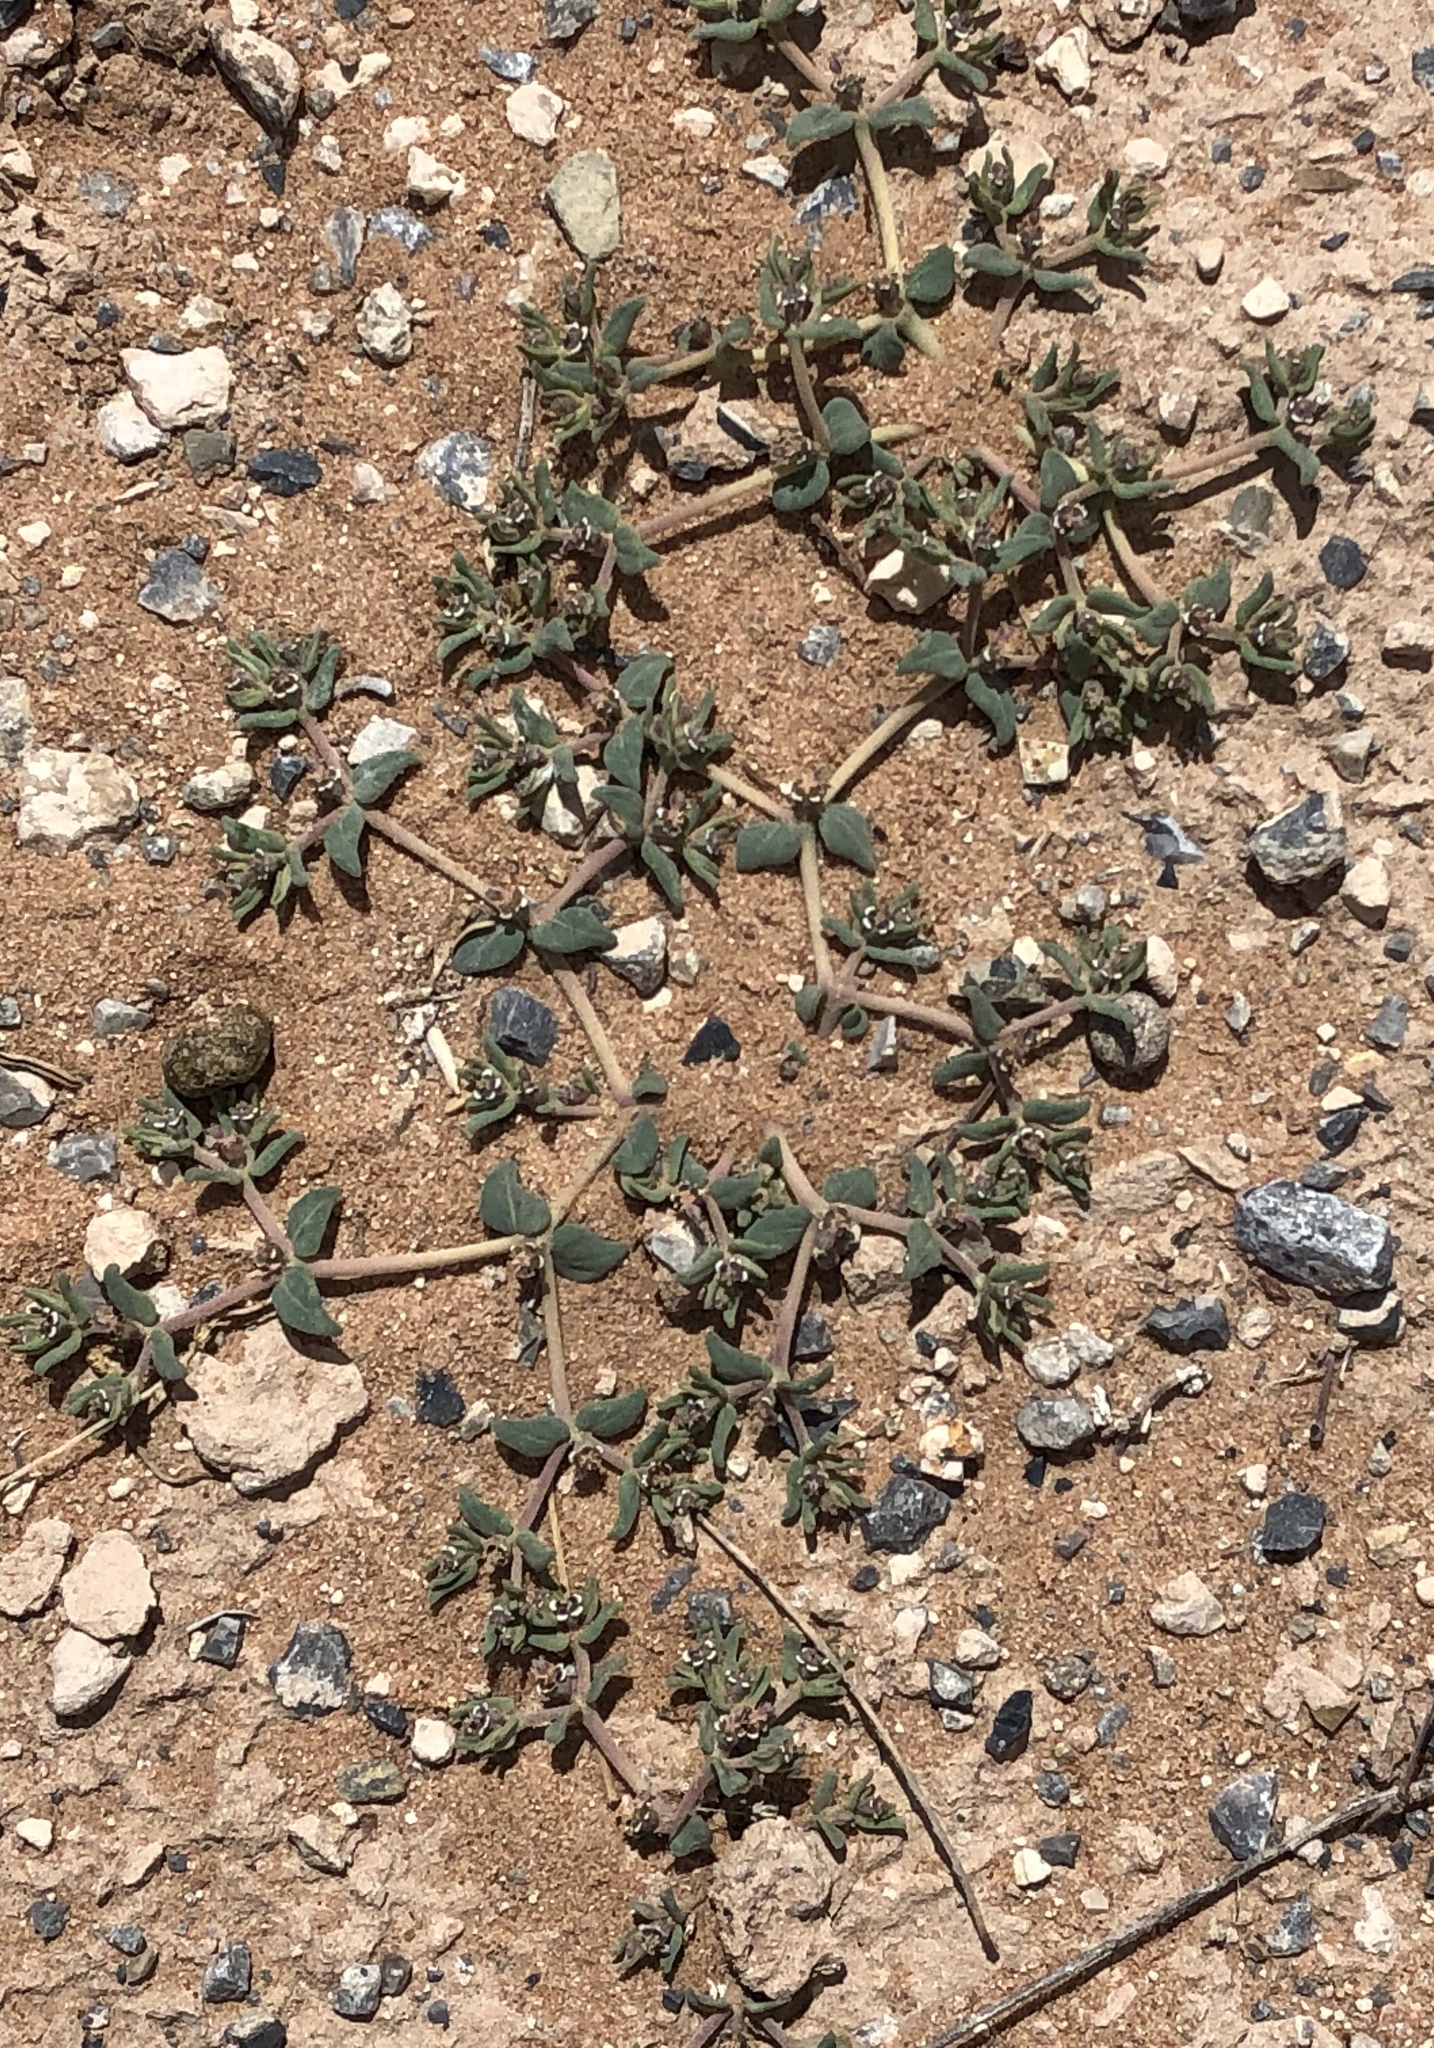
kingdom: Plantae
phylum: Tracheophyta
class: Magnoliopsida
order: Malpighiales
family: Euphorbiaceae
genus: Euphorbia
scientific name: Euphorbia lata
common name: Hoary euphorbia
